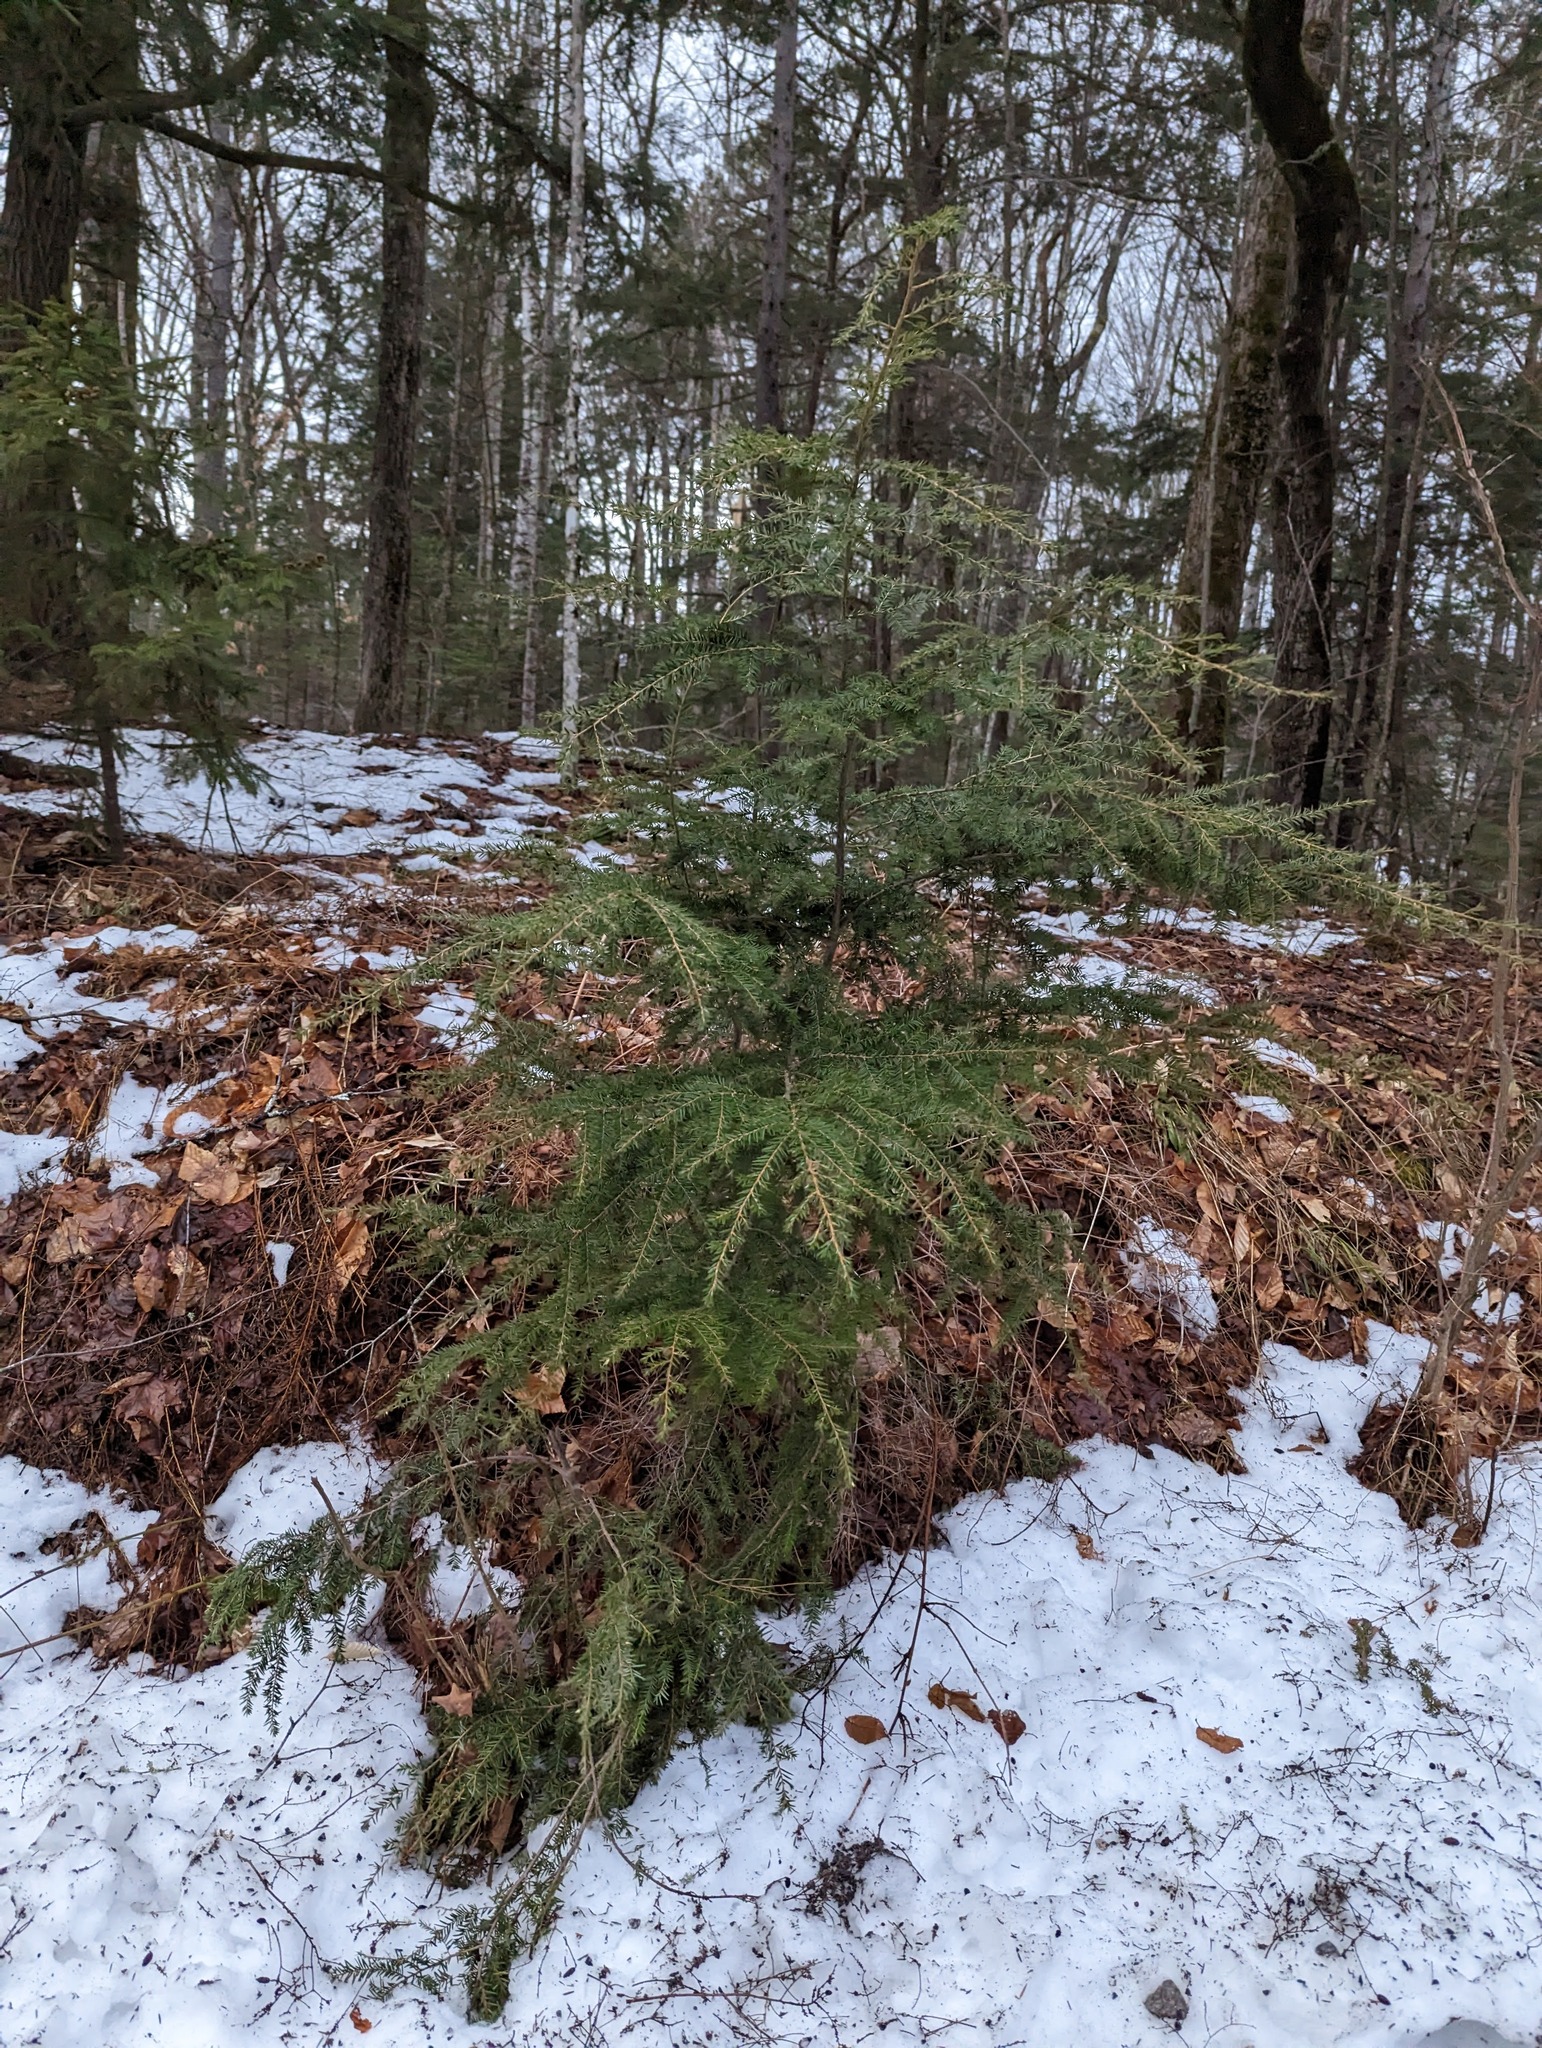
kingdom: Plantae
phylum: Tracheophyta
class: Pinopsida
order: Pinales
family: Pinaceae
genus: Tsuga
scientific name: Tsuga canadensis
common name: Eastern hemlock
